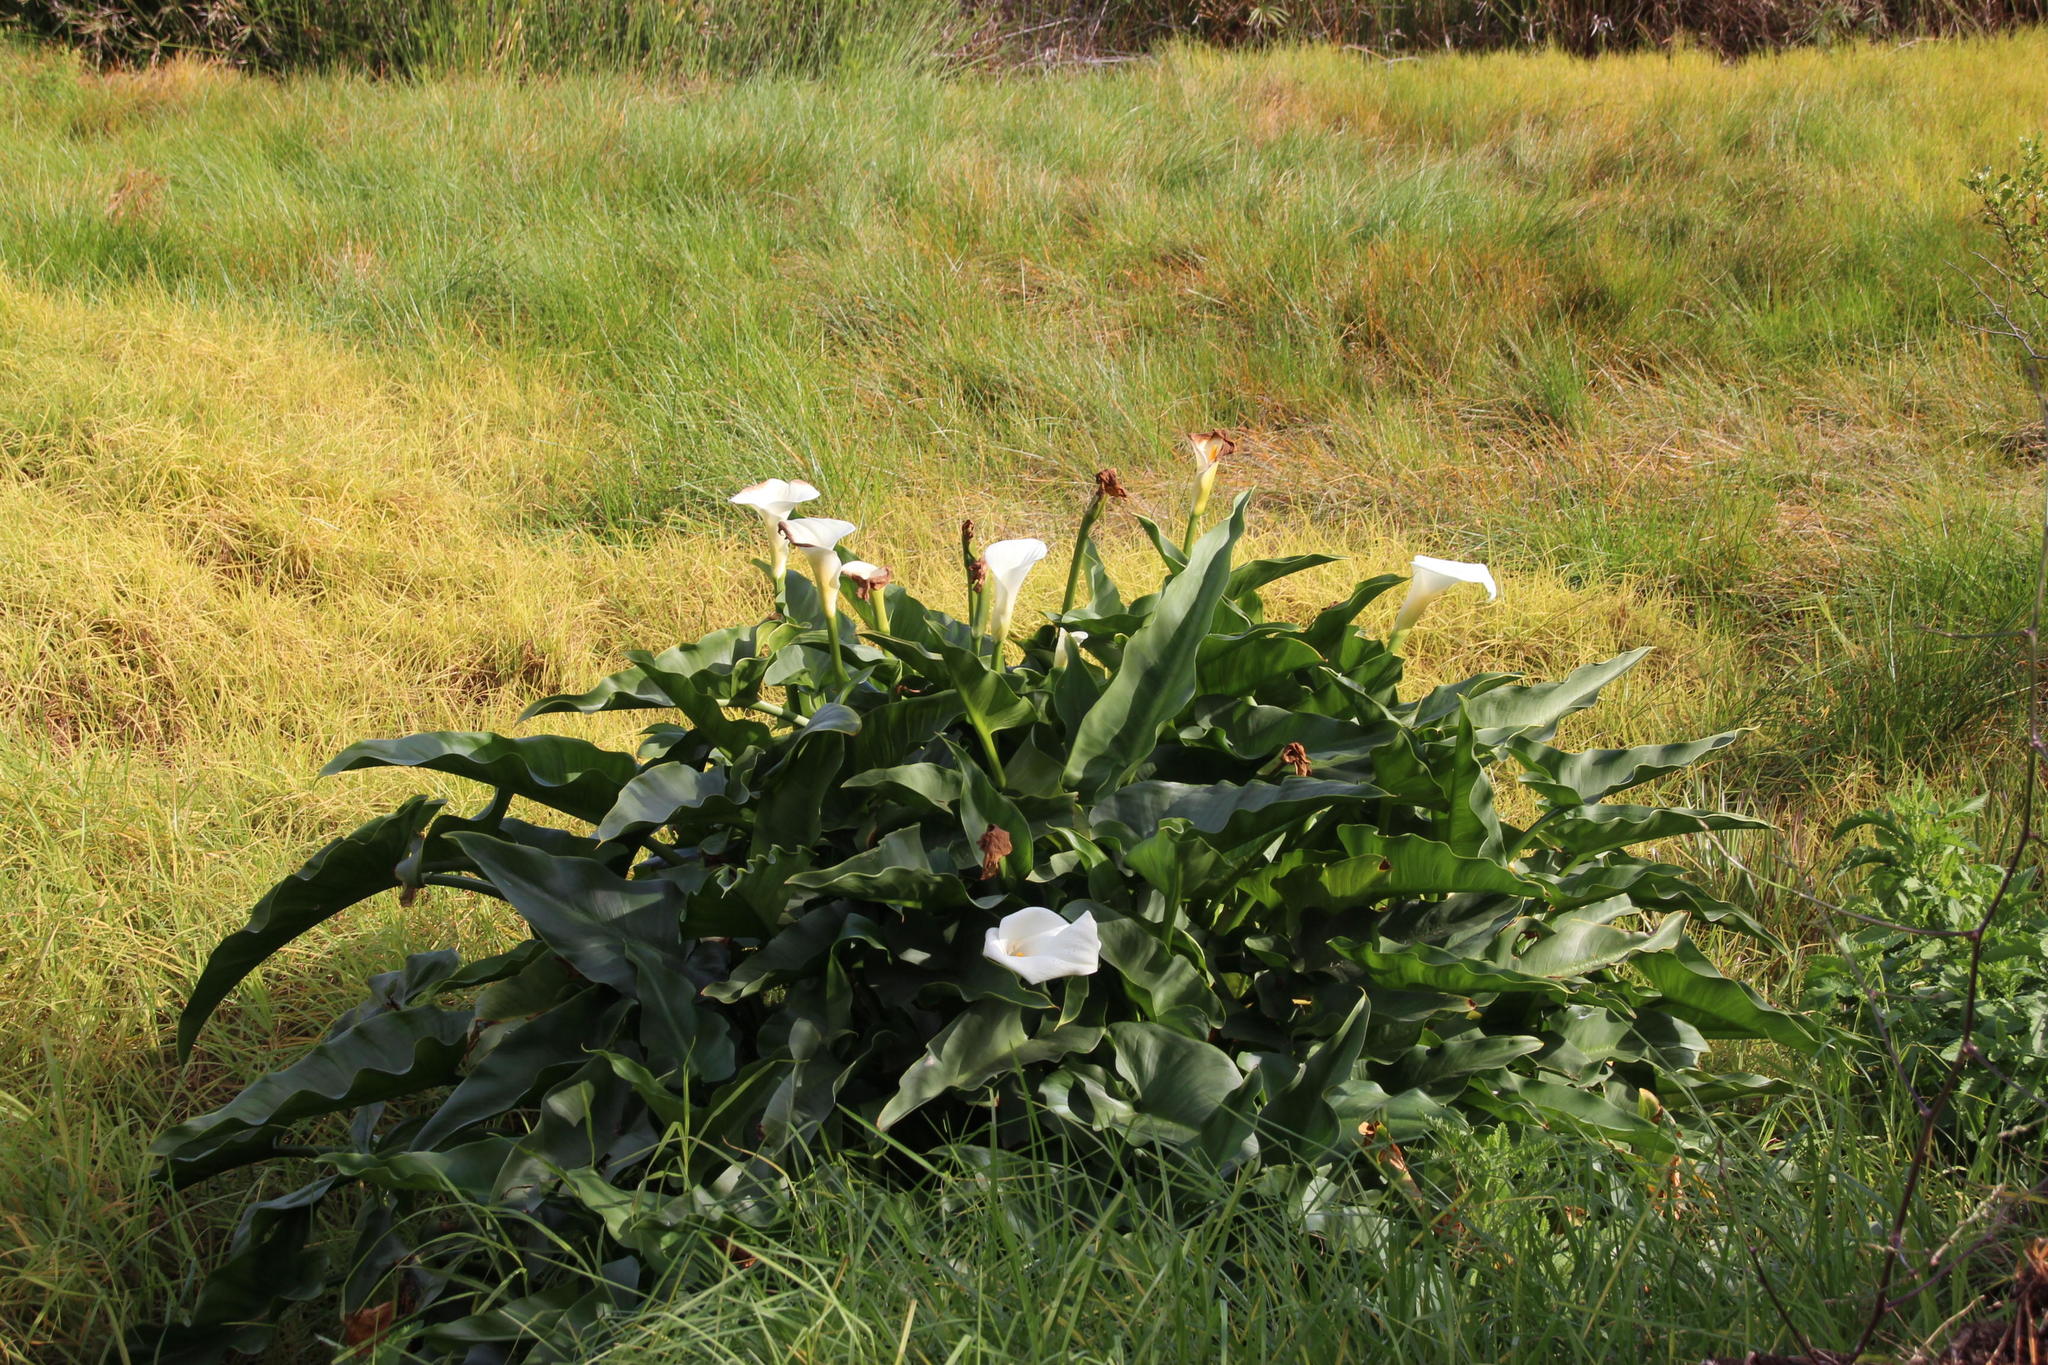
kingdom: Plantae
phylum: Tracheophyta
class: Liliopsida
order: Alismatales
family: Araceae
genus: Zantedeschia
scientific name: Zantedeschia aethiopica
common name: Altar-lily
